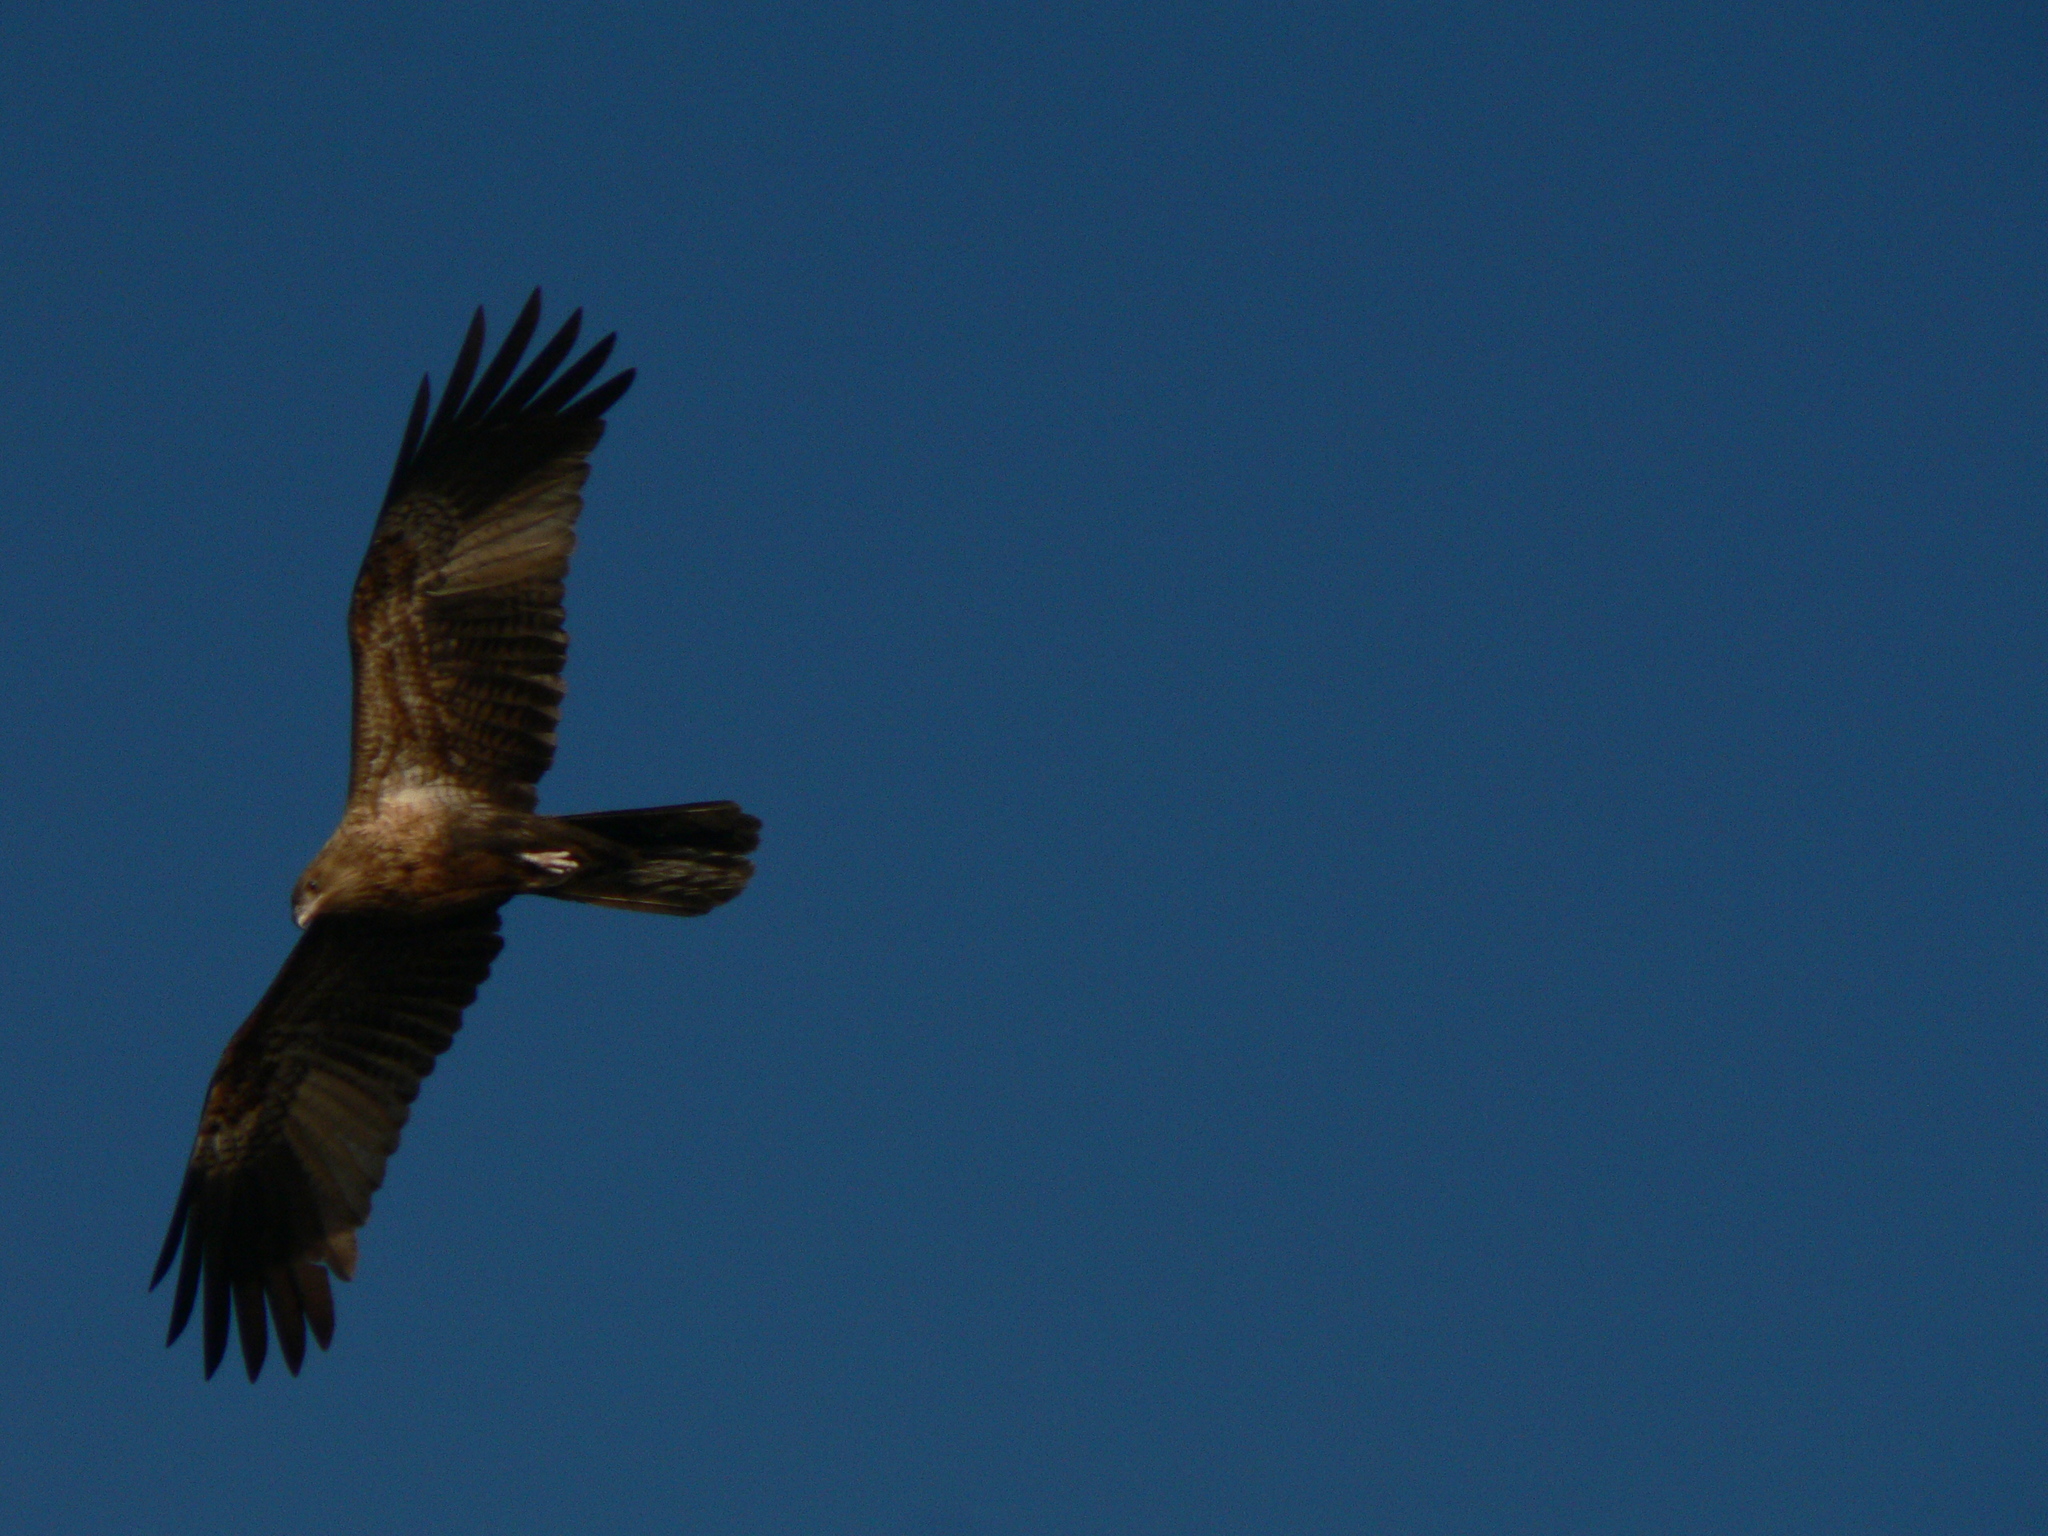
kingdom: Animalia
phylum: Chordata
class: Aves
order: Accipitriformes
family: Accipitridae
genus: Haliastur
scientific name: Haliastur sphenurus
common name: Whistling kite
